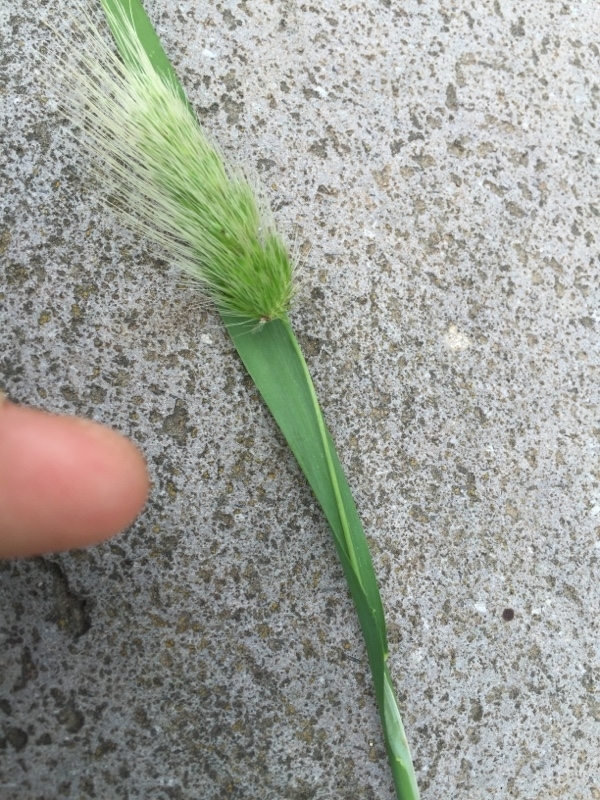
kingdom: Plantae
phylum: Tracheophyta
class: Liliopsida
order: Poales
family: Poaceae
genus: Cynosurus
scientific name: Cynosurus echinatus
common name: Rough dog's-tail
